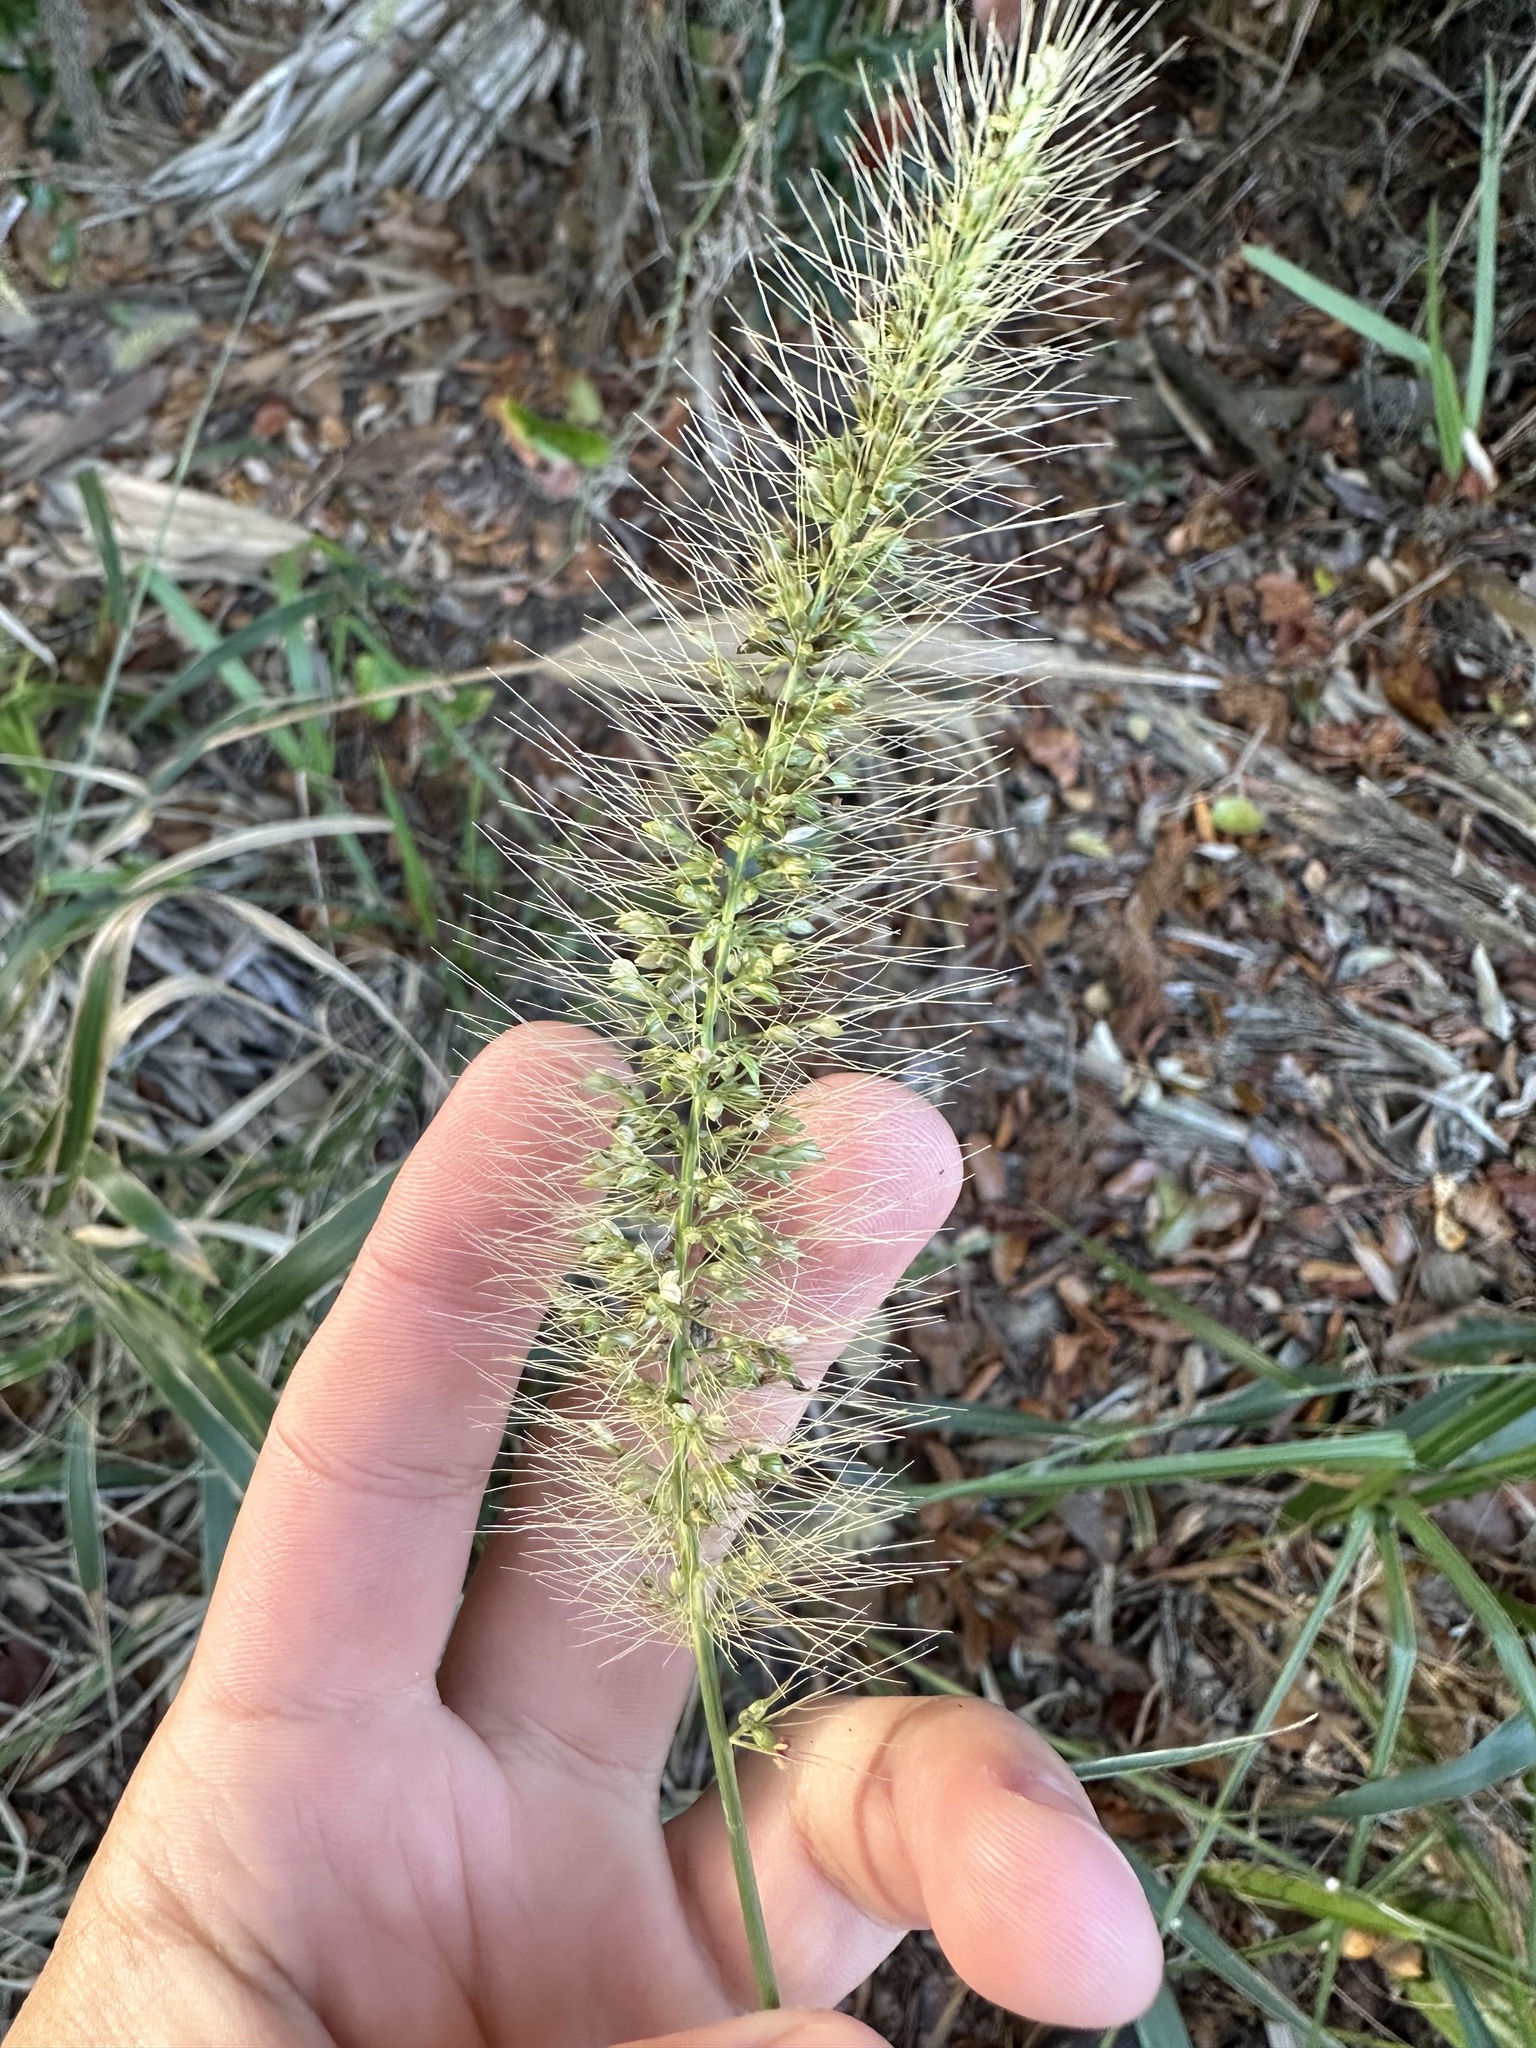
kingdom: Plantae
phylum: Tracheophyta
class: Liliopsida
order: Poales
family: Poaceae
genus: Setaria
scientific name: Setaria macrosperma
